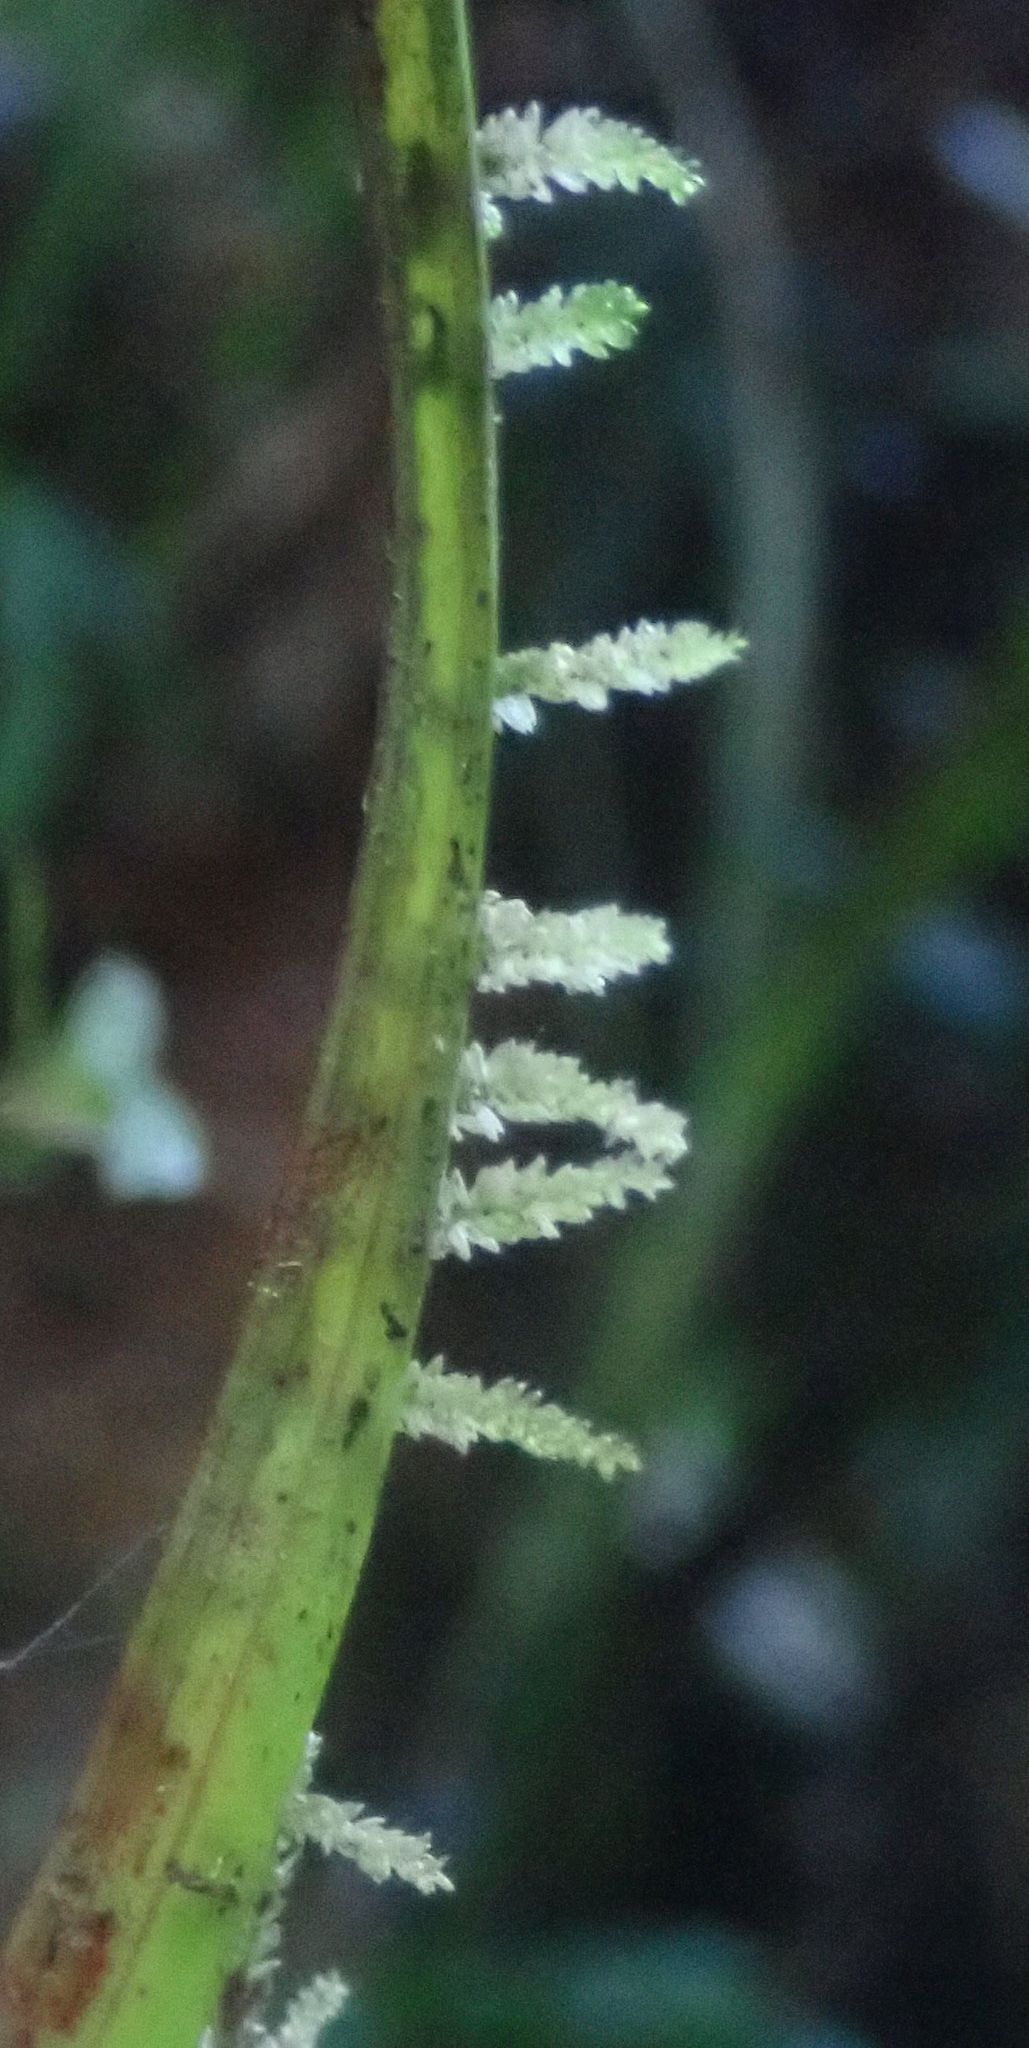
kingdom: Plantae
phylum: Bryophyta
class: Bryopsida
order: Hypnales
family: Lembophyllaceae
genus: Weymouthia
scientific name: Weymouthia mollis
